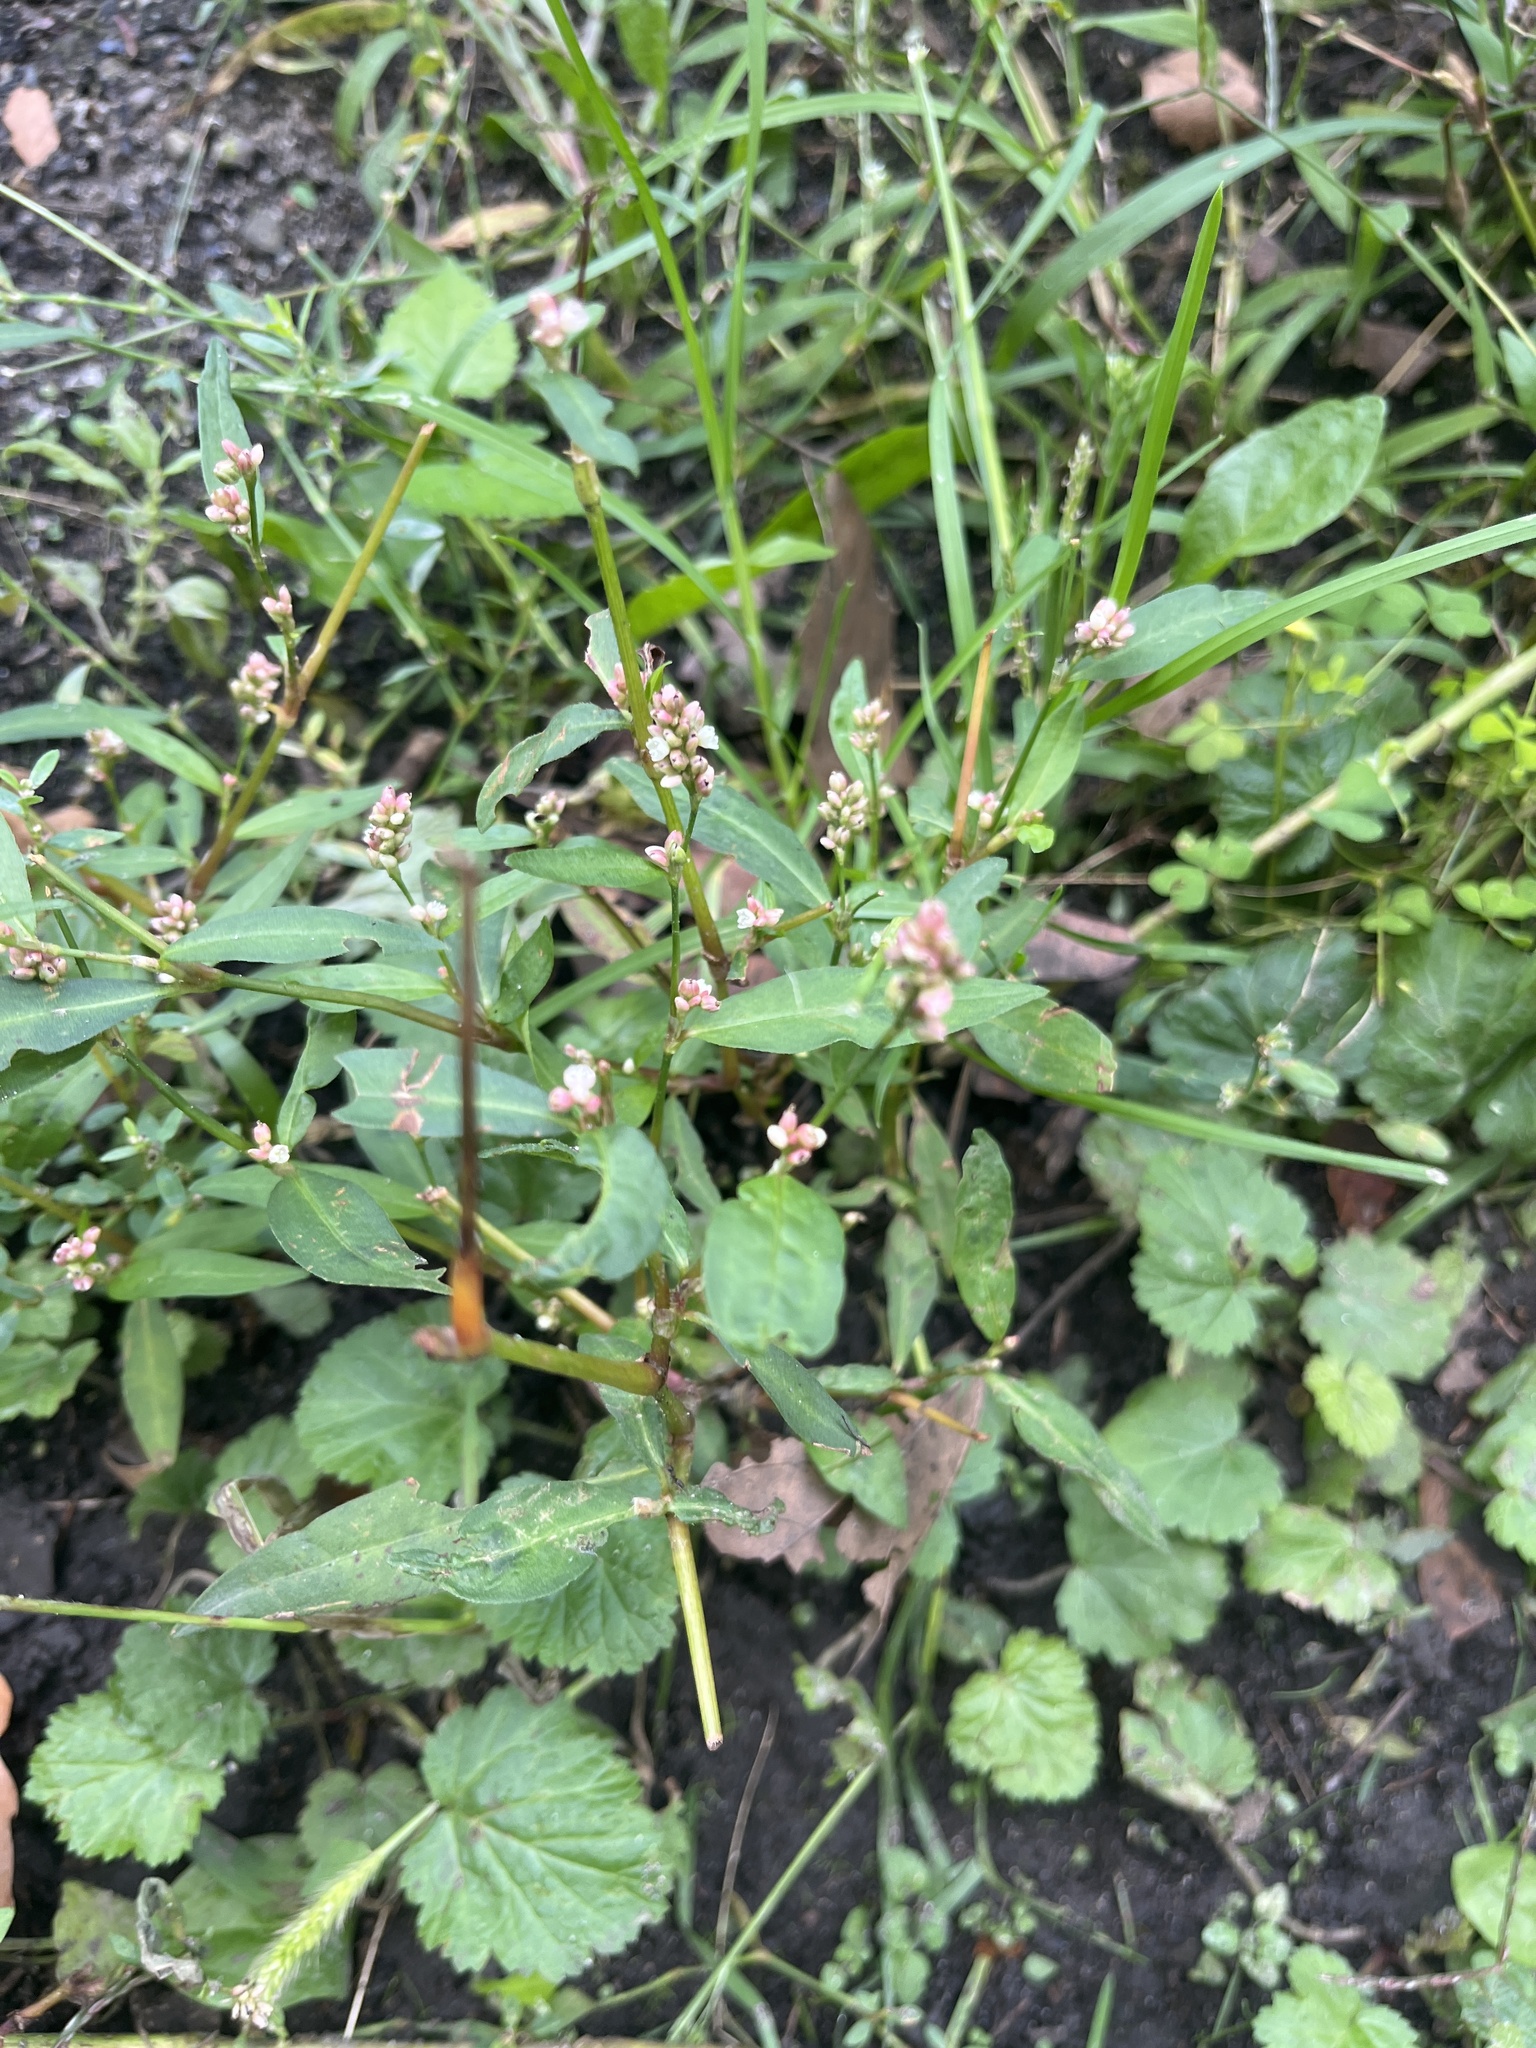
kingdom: Plantae
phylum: Tracheophyta
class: Magnoliopsida
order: Caryophyllales
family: Polygonaceae
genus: Persicaria
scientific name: Persicaria maculosa
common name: Redshank
